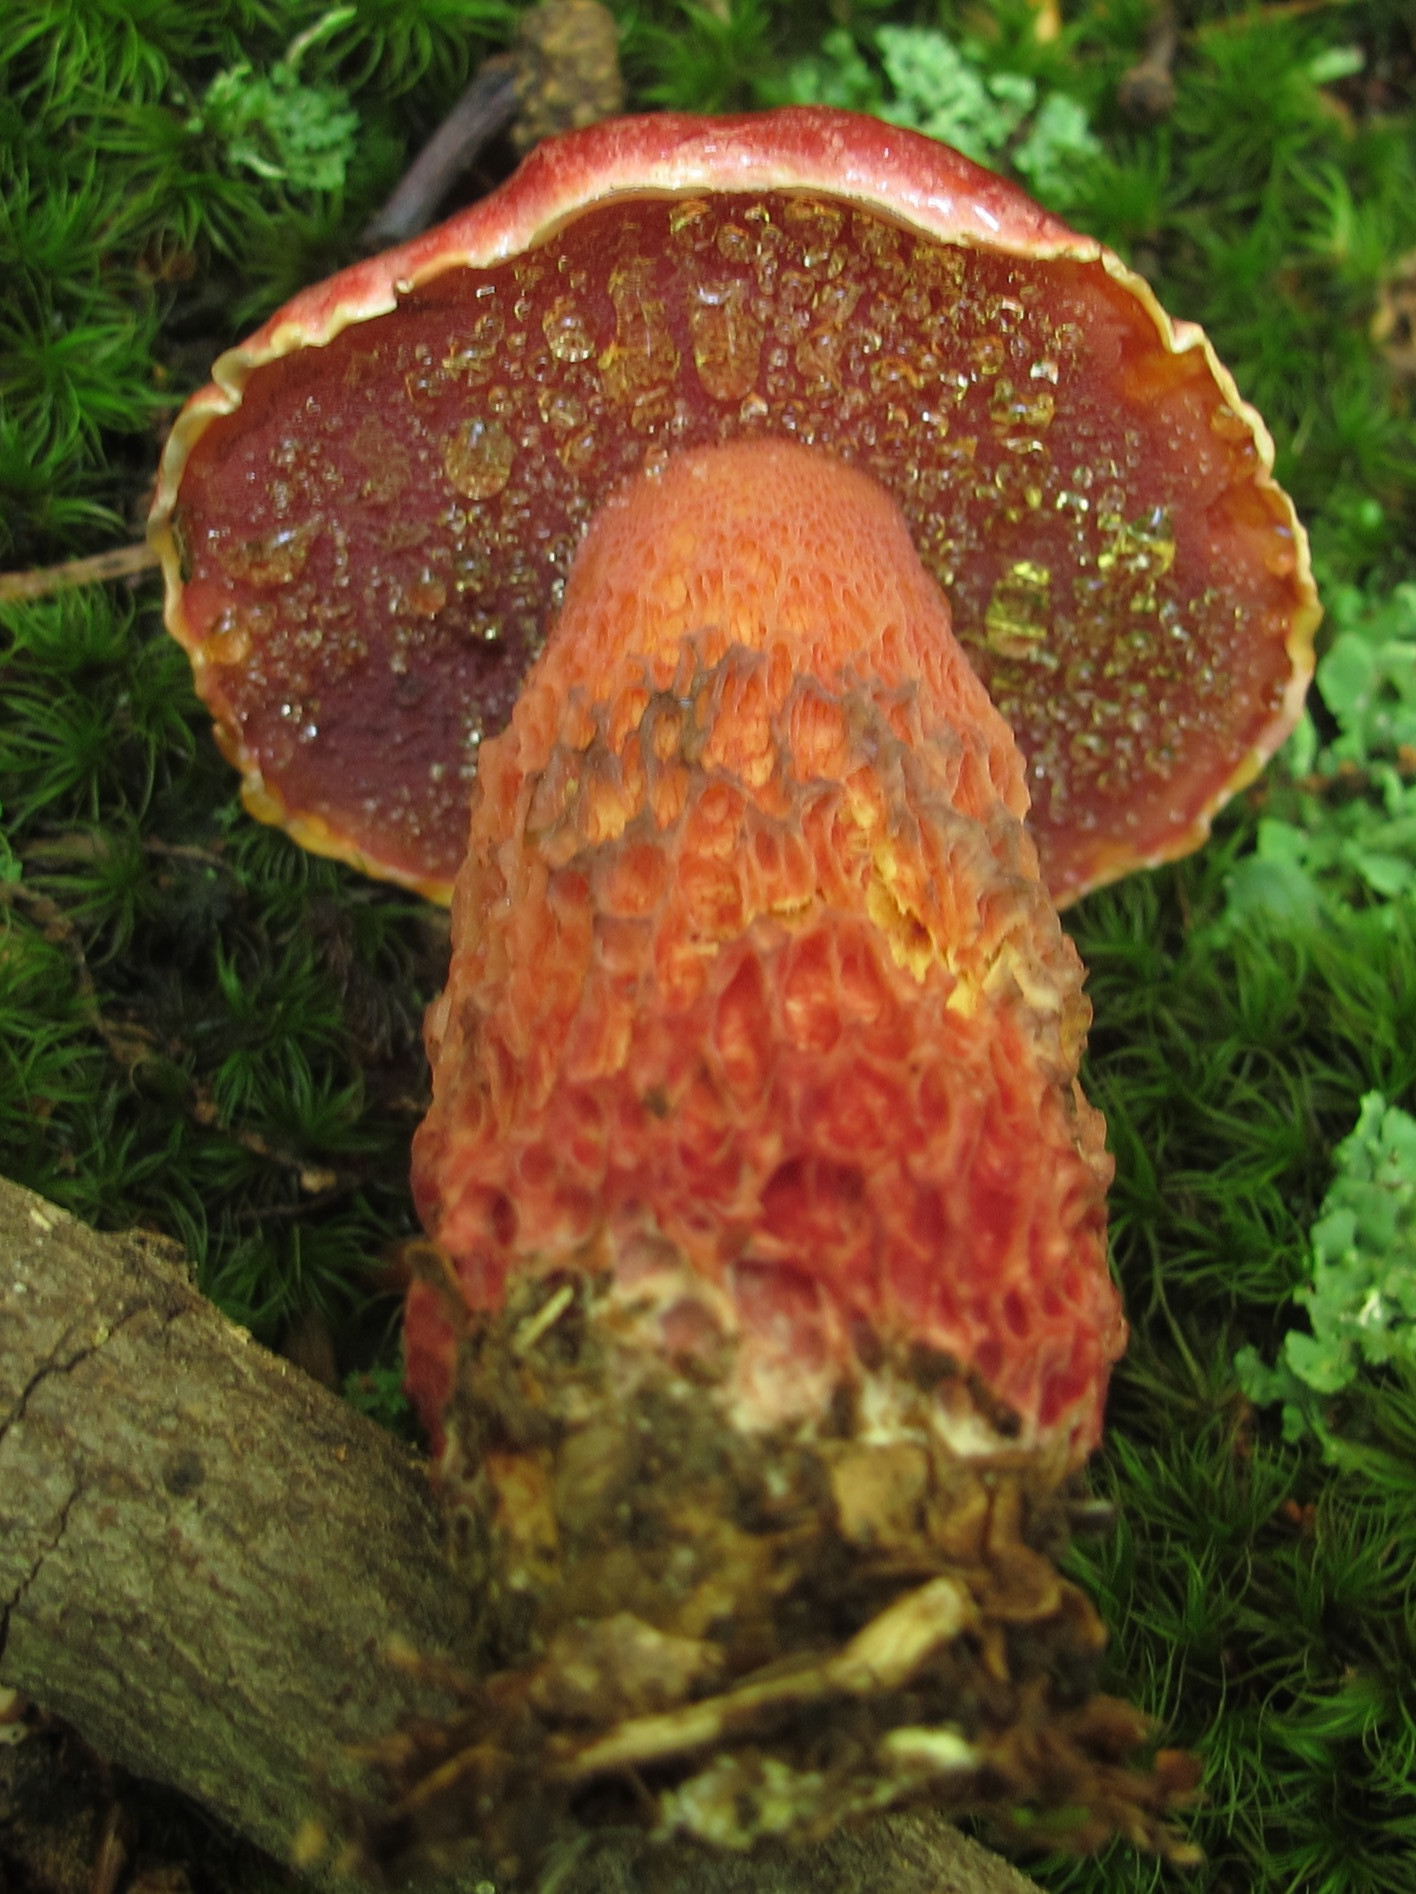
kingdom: Fungi
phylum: Basidiomycota
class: Agaricomycetes
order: Boletales
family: Boletaceae
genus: Butyriboletus
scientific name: Butyriboletus frostii
